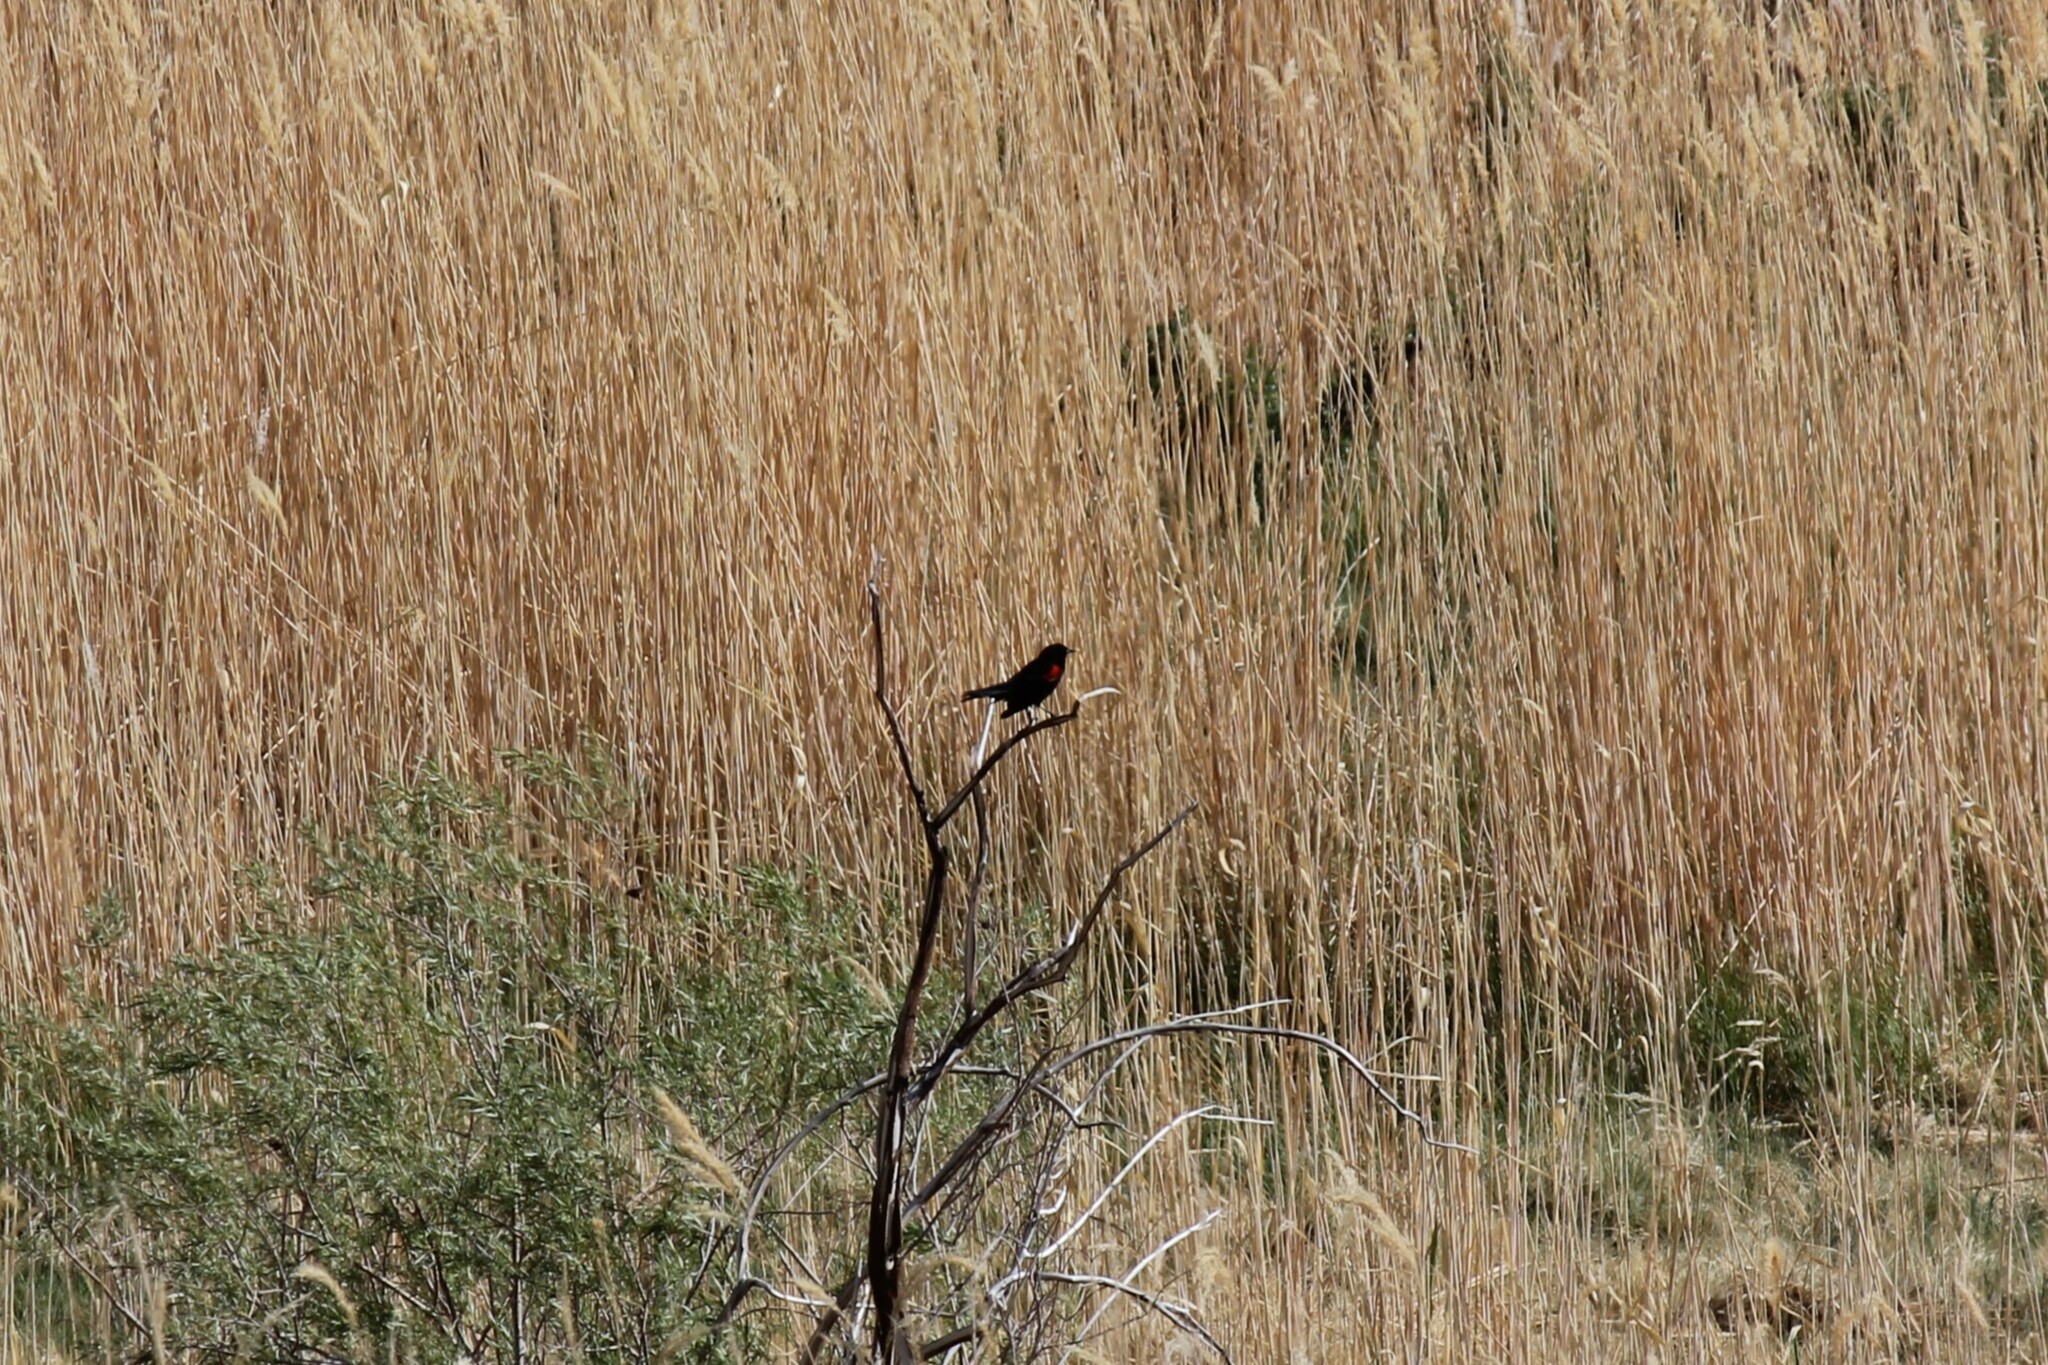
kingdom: Animalia
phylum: Chordata
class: Aves
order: Passeriformes
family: Icteridae
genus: Agelaius
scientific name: Agelaius phoeniceus
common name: Red-winged blackbird
